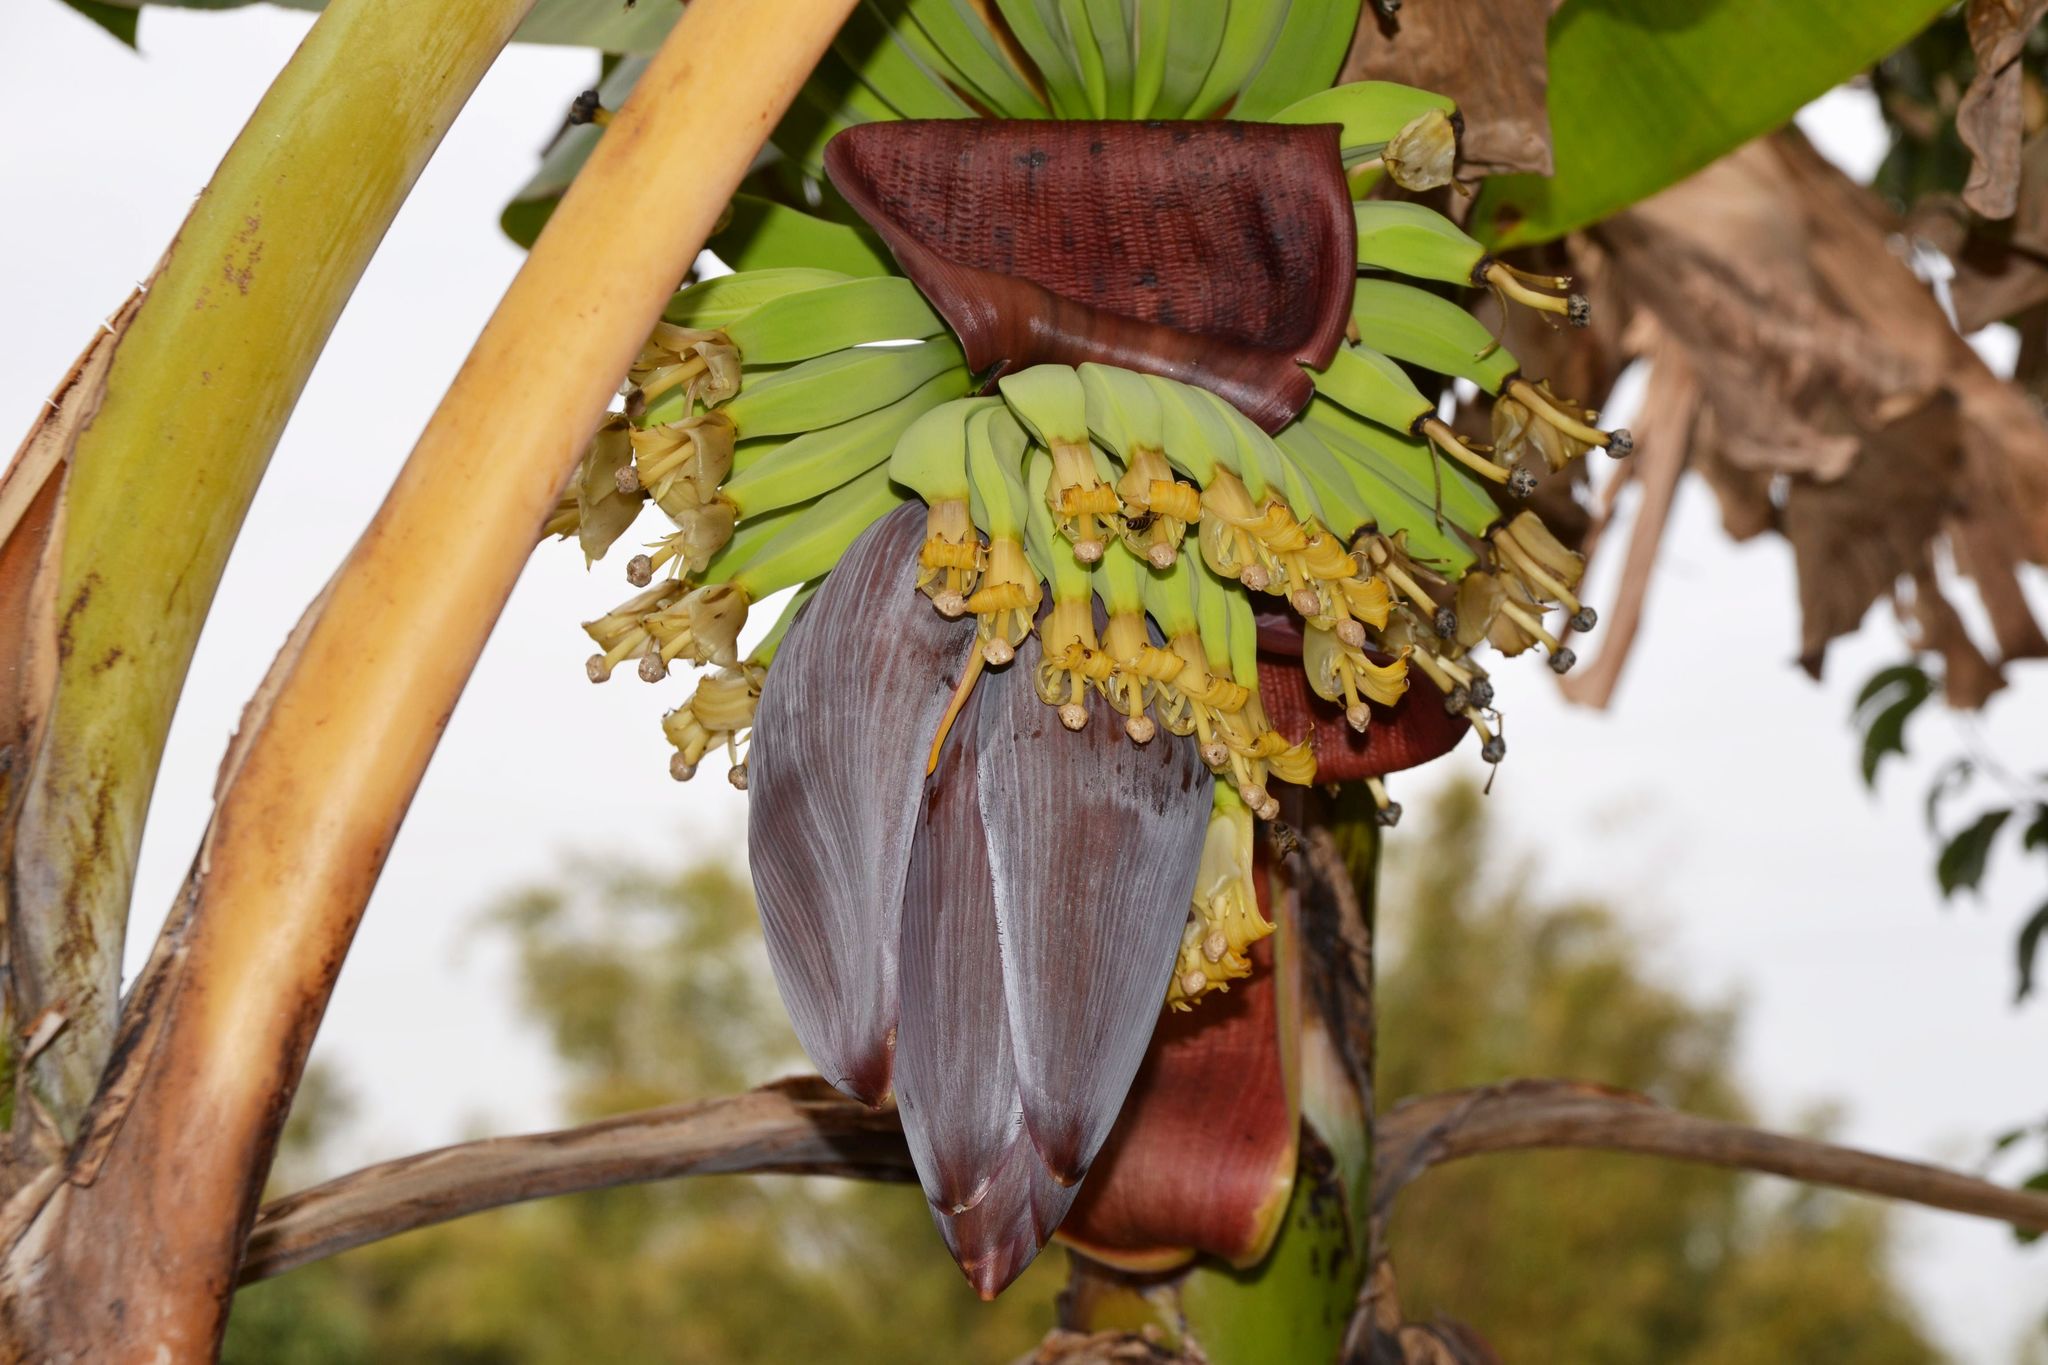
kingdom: Plantae
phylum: Tracheophyta
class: Liliopsida
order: Zingiberales
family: Musaceae
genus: Musa
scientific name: Musa paradisiaca
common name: French plantain
